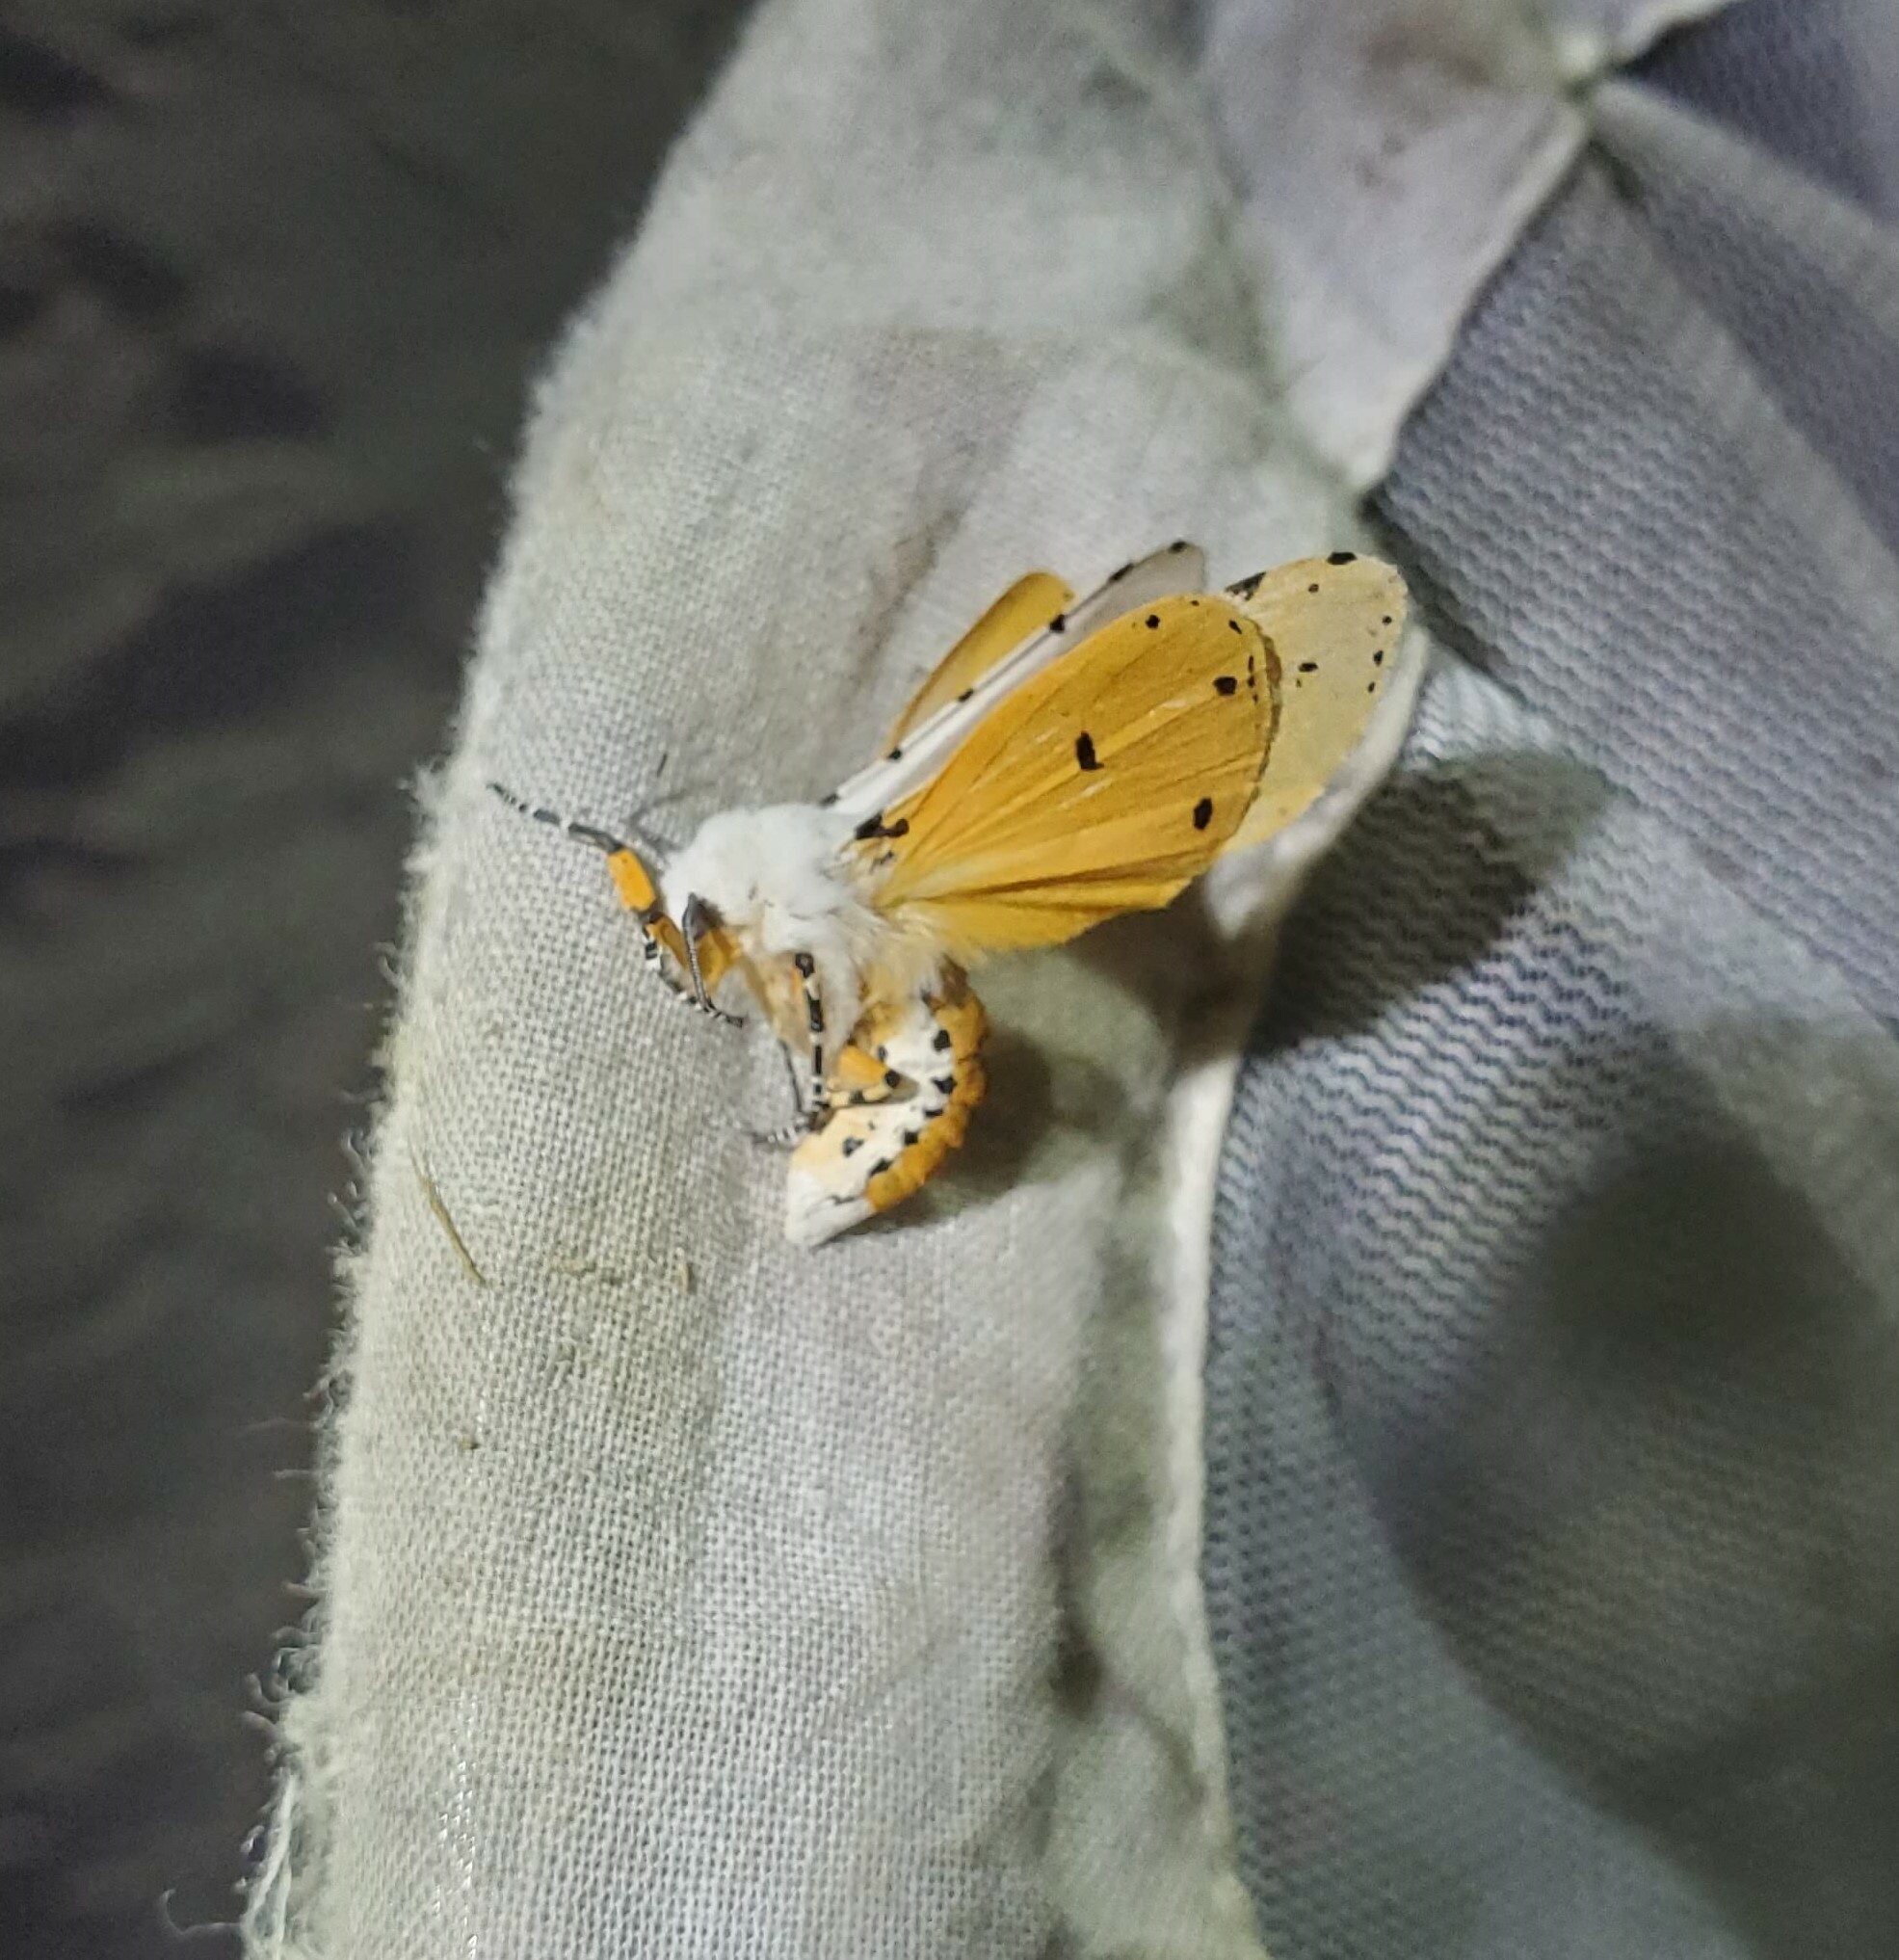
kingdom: Animalia
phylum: Arthropoda
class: Insecta
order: Lepidoptera
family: Erebidae
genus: Estigmene
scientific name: Estigmene acrea
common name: Salt marsh moth
